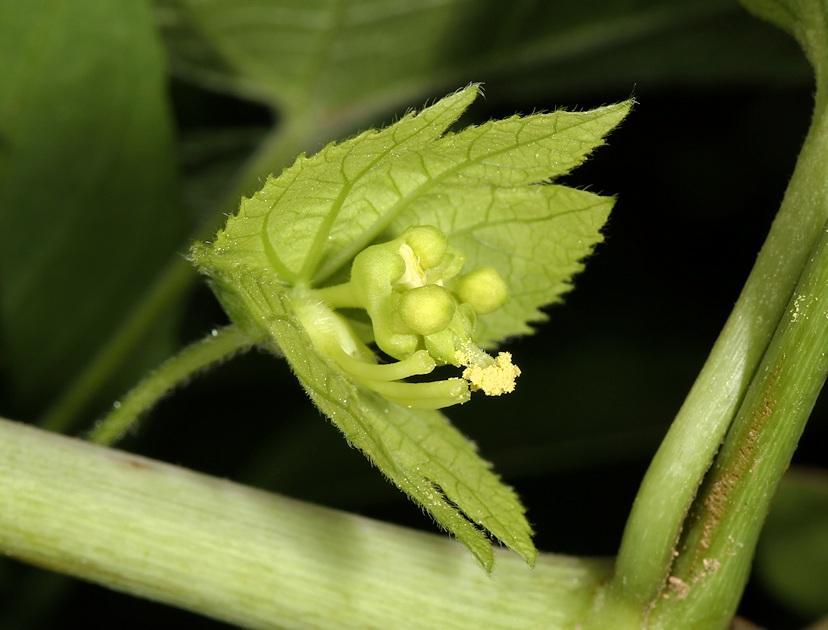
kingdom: Plantae
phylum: Tracheophyta
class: Magnoliopsida
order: Malpighiales
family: Euphorbiaceae
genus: Dalechampia
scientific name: Dalechampia scandens
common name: Spurgecreeper
